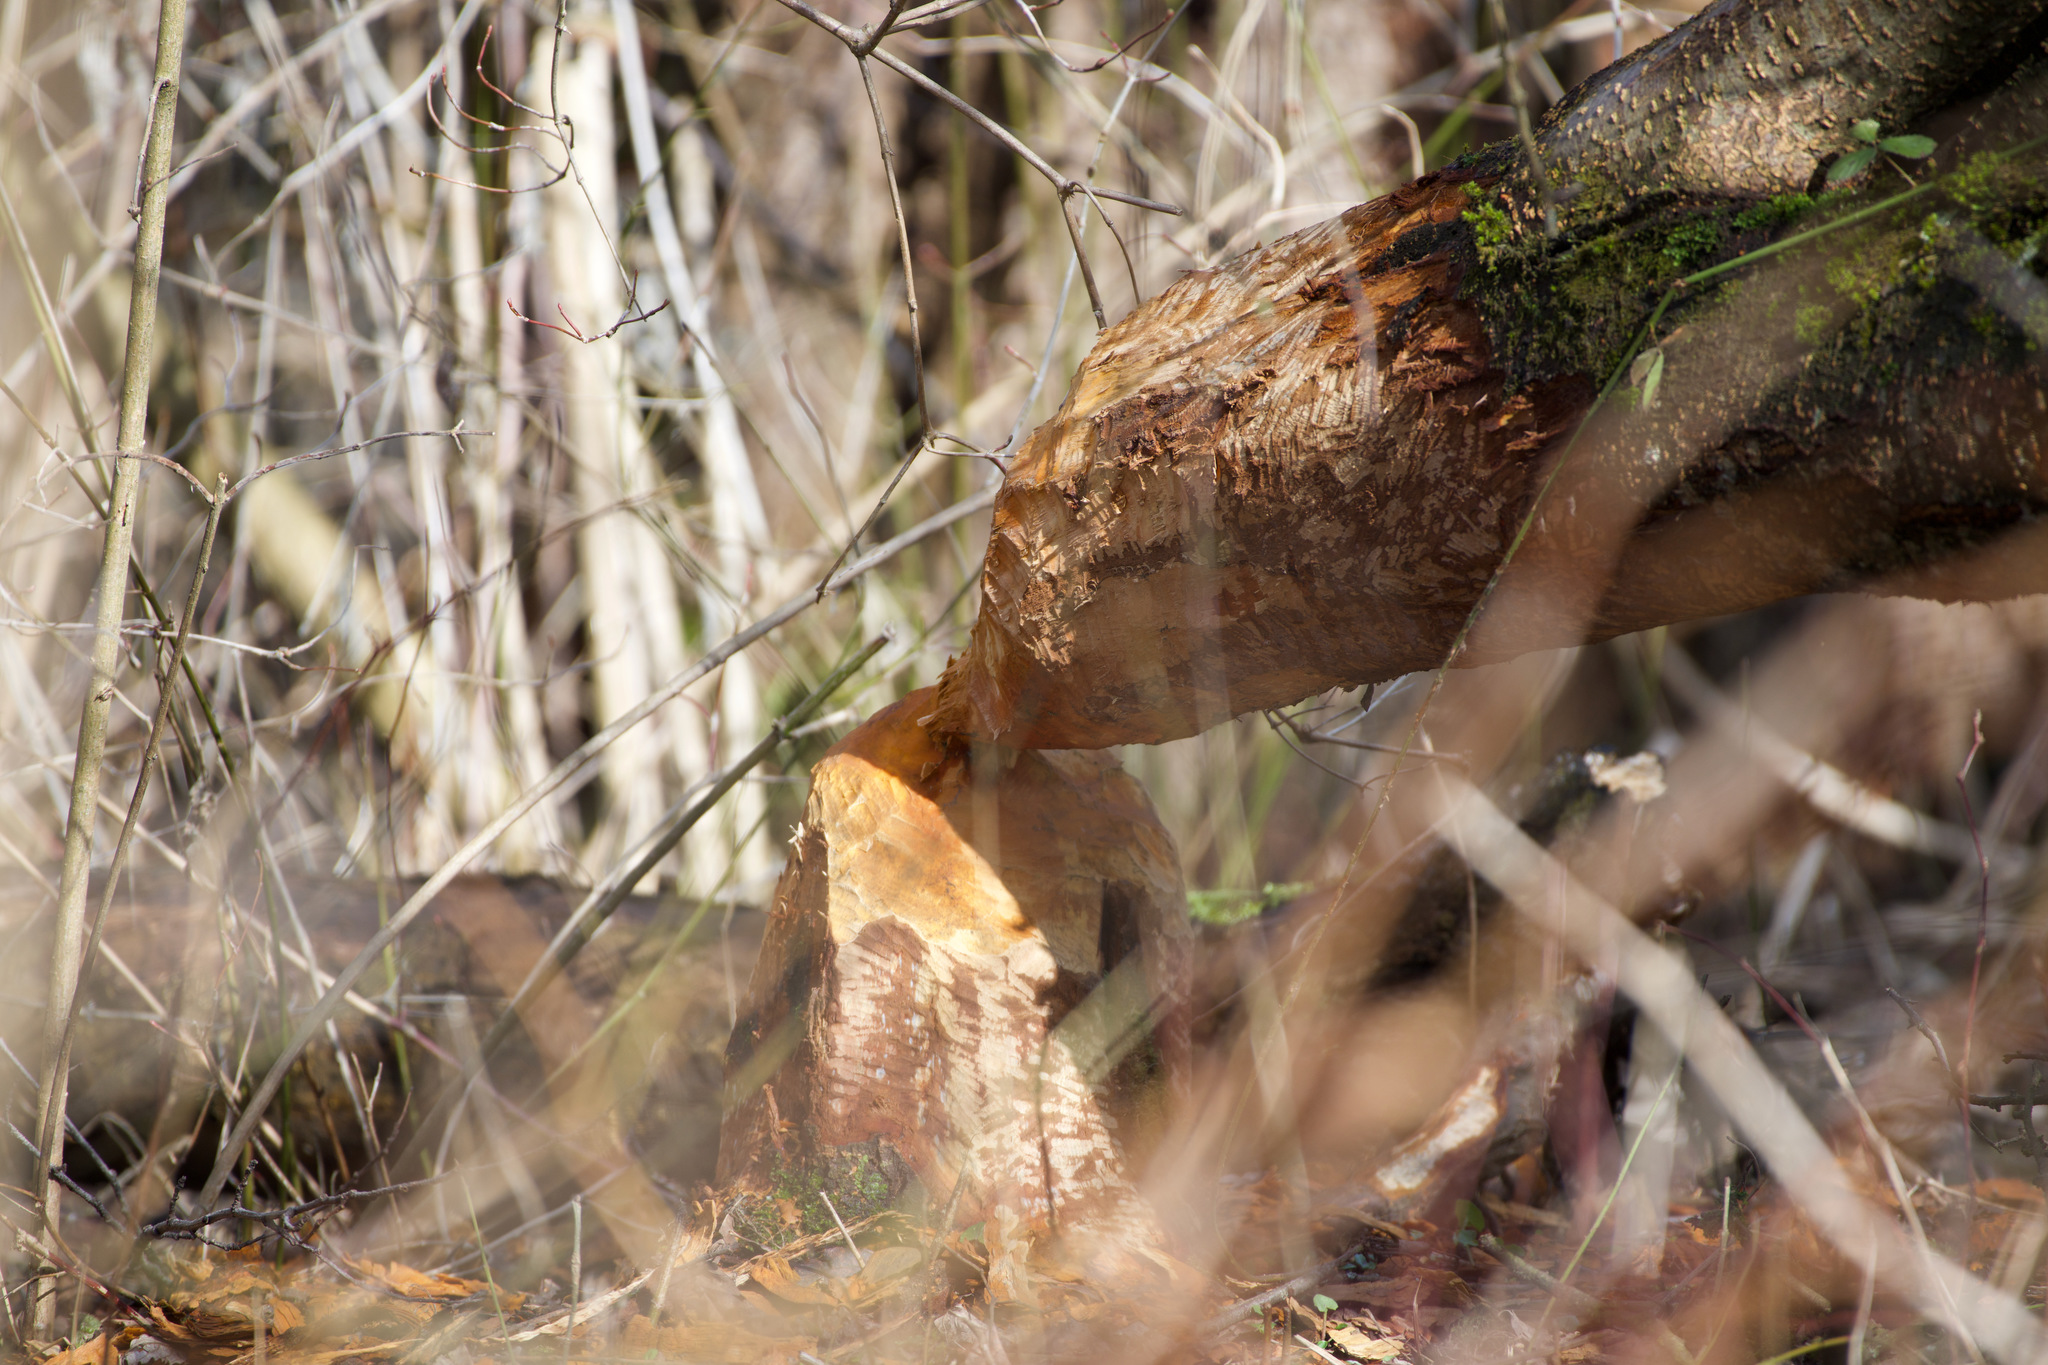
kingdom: Animalia
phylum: Chordata
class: Mammalia
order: Rodentia
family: Castoridae
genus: Castor
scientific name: Castor fiber
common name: Eurasian beaver
